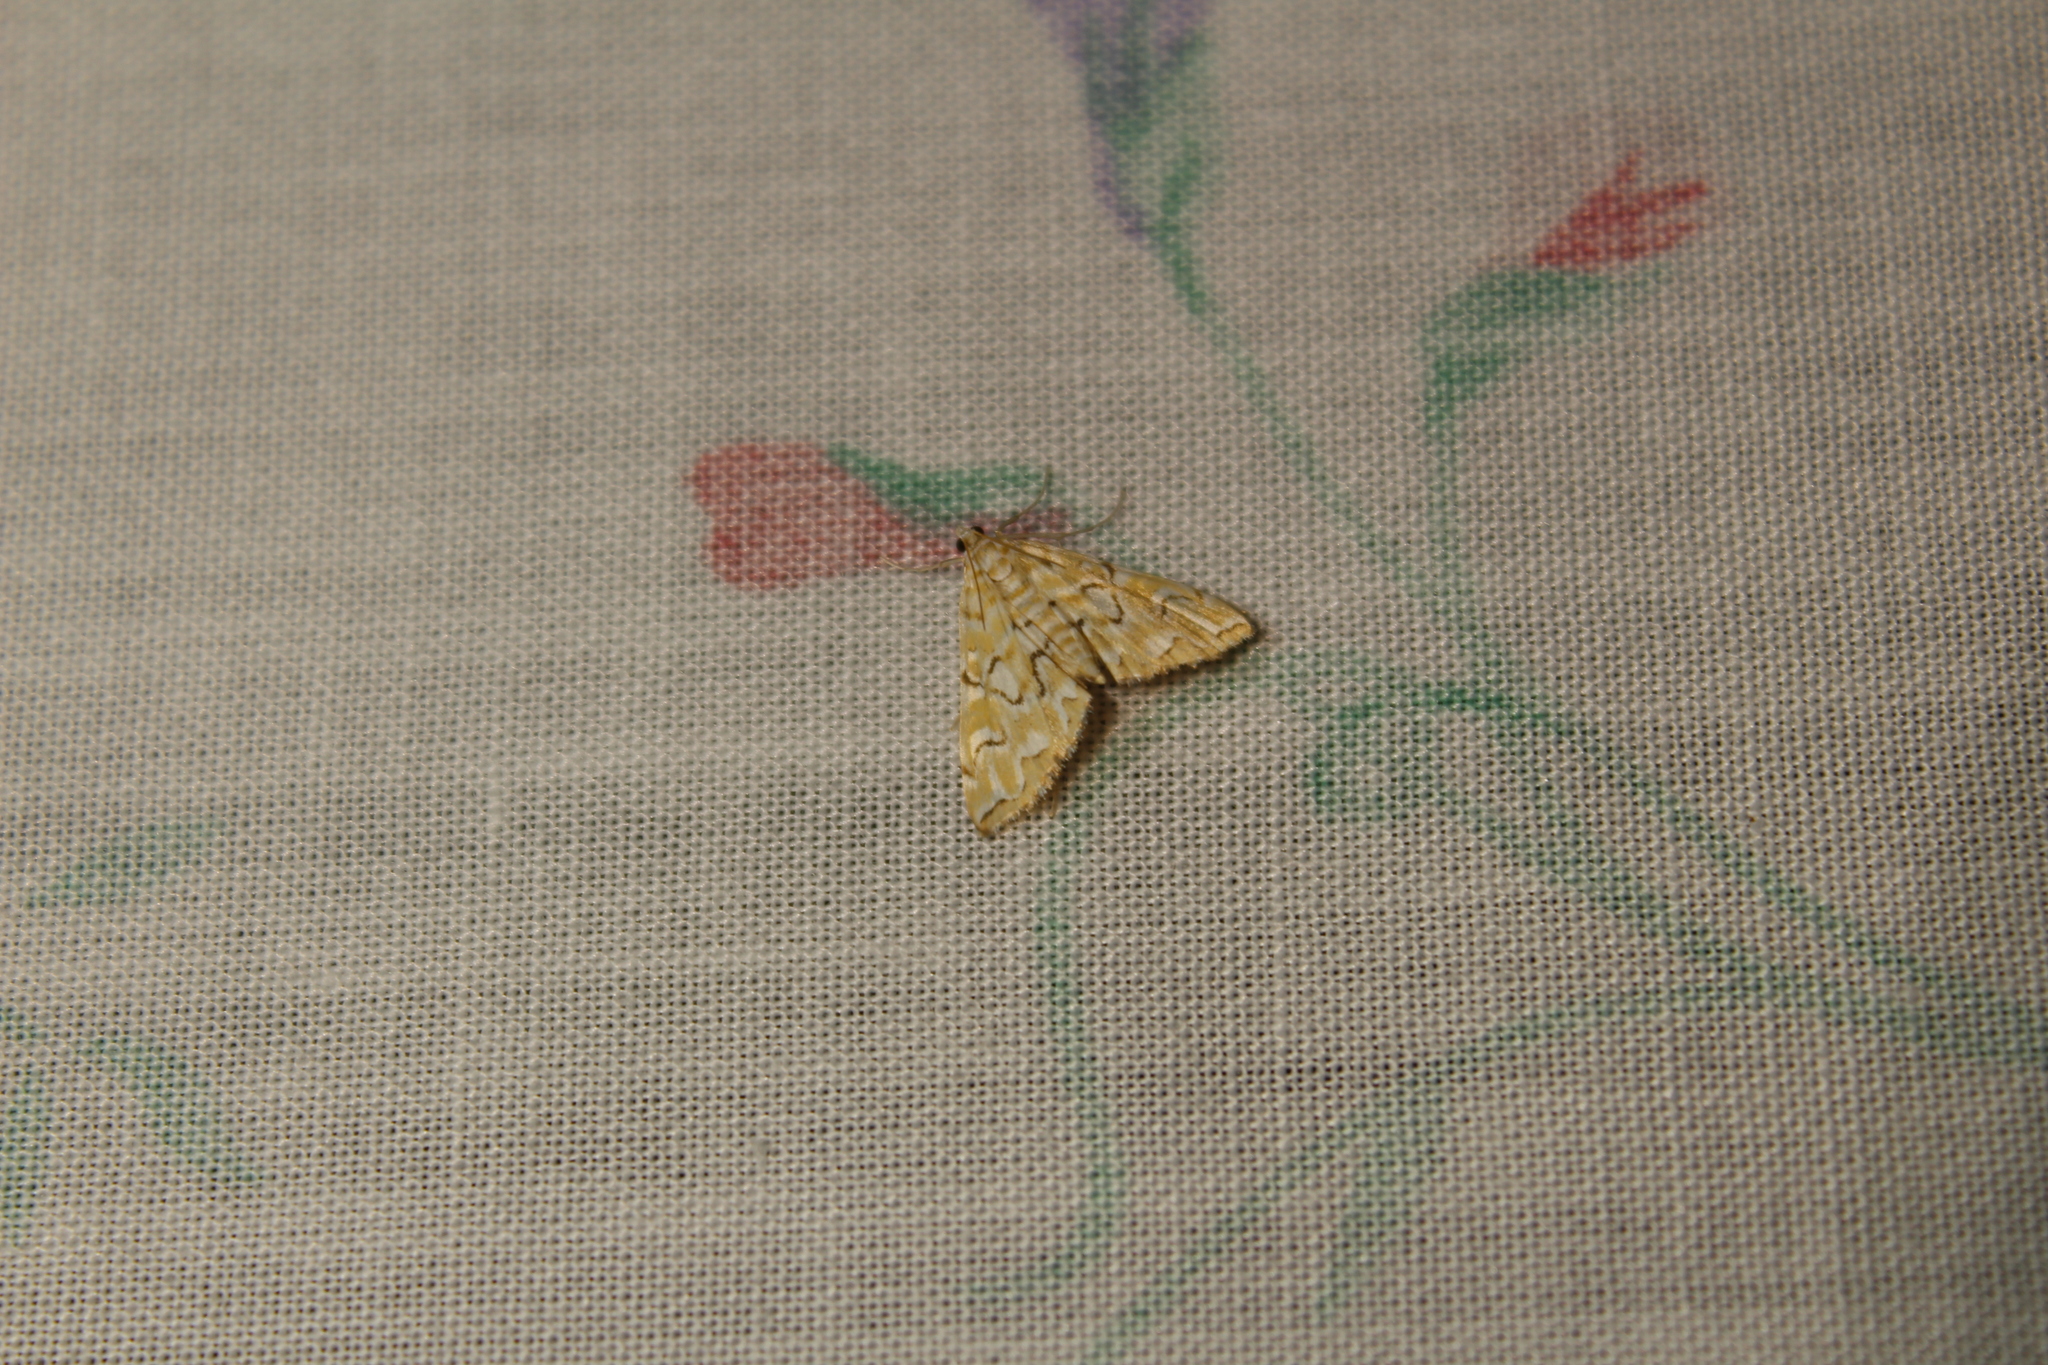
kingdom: Animalia
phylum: Arthropoda
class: Insecta
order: Lepidoptera
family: Crambidae
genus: Elophila
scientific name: Elophila icciusalis
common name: Pondside pyralid moth
